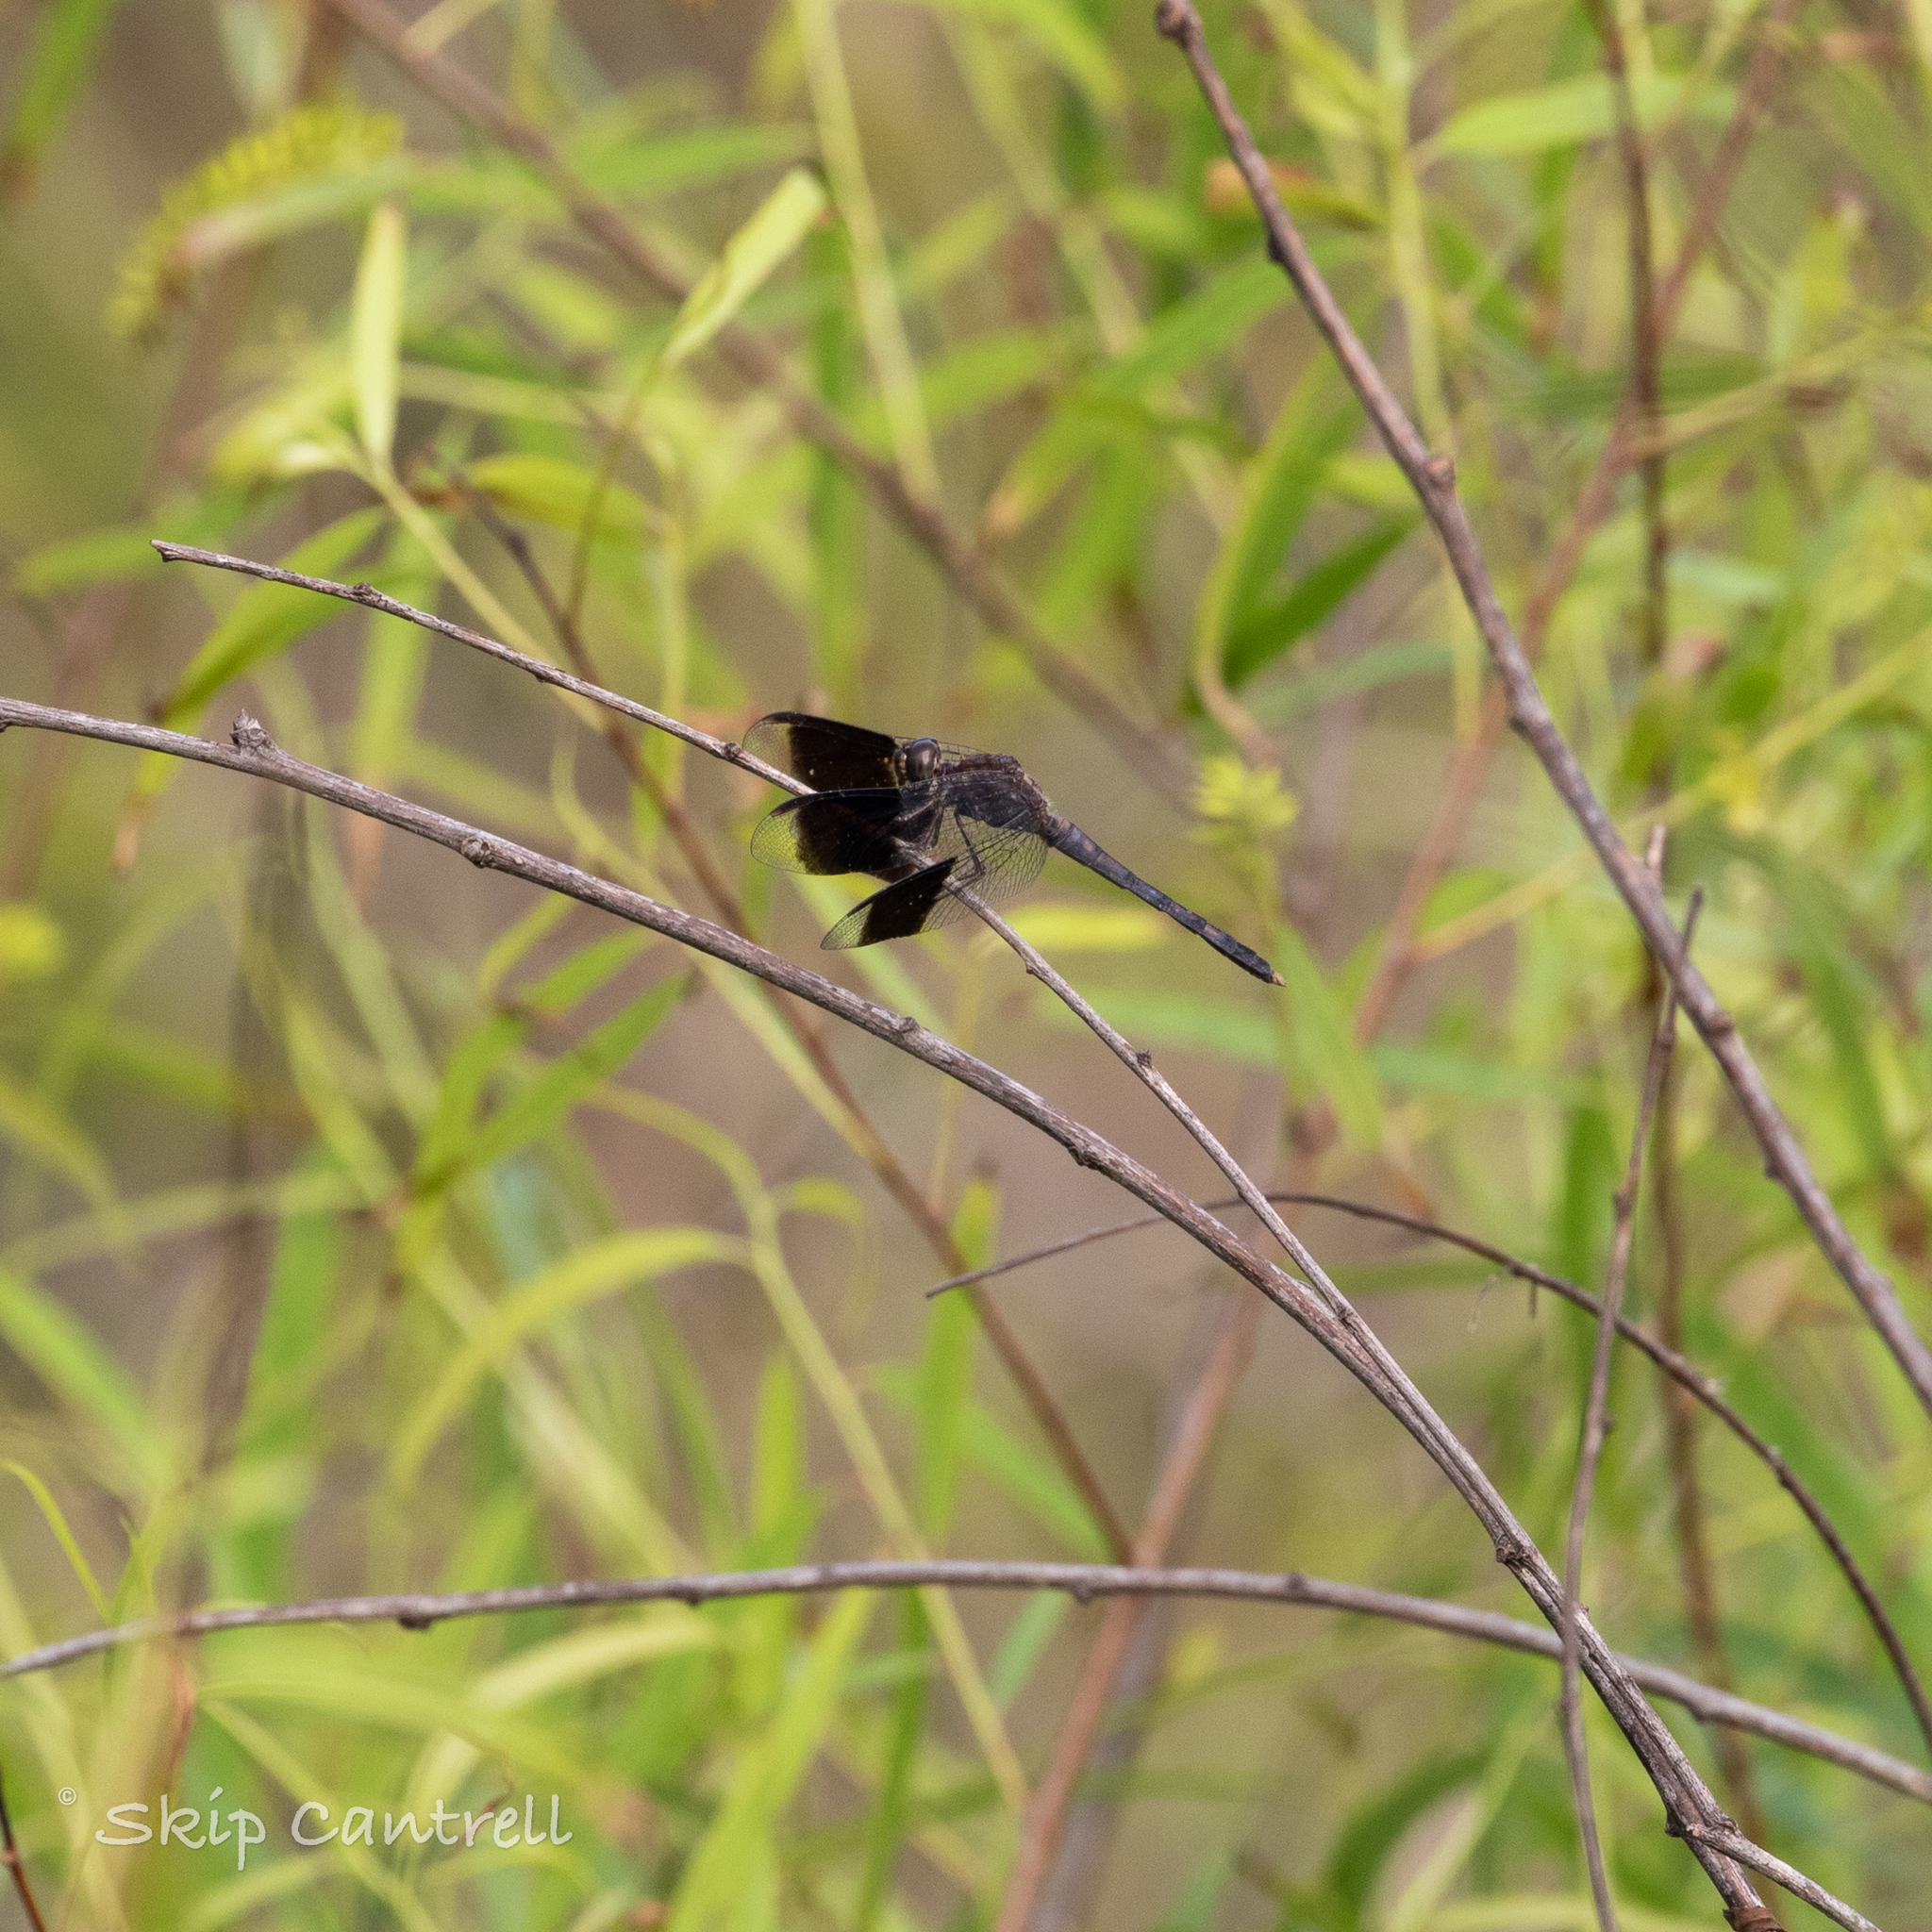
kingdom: Animalia
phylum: Arthropoda
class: Insecta
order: Odonata
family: Libellulidae
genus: Erythrodiplax
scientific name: Erythrodiplax umbrata
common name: Band-winged dragonlet
